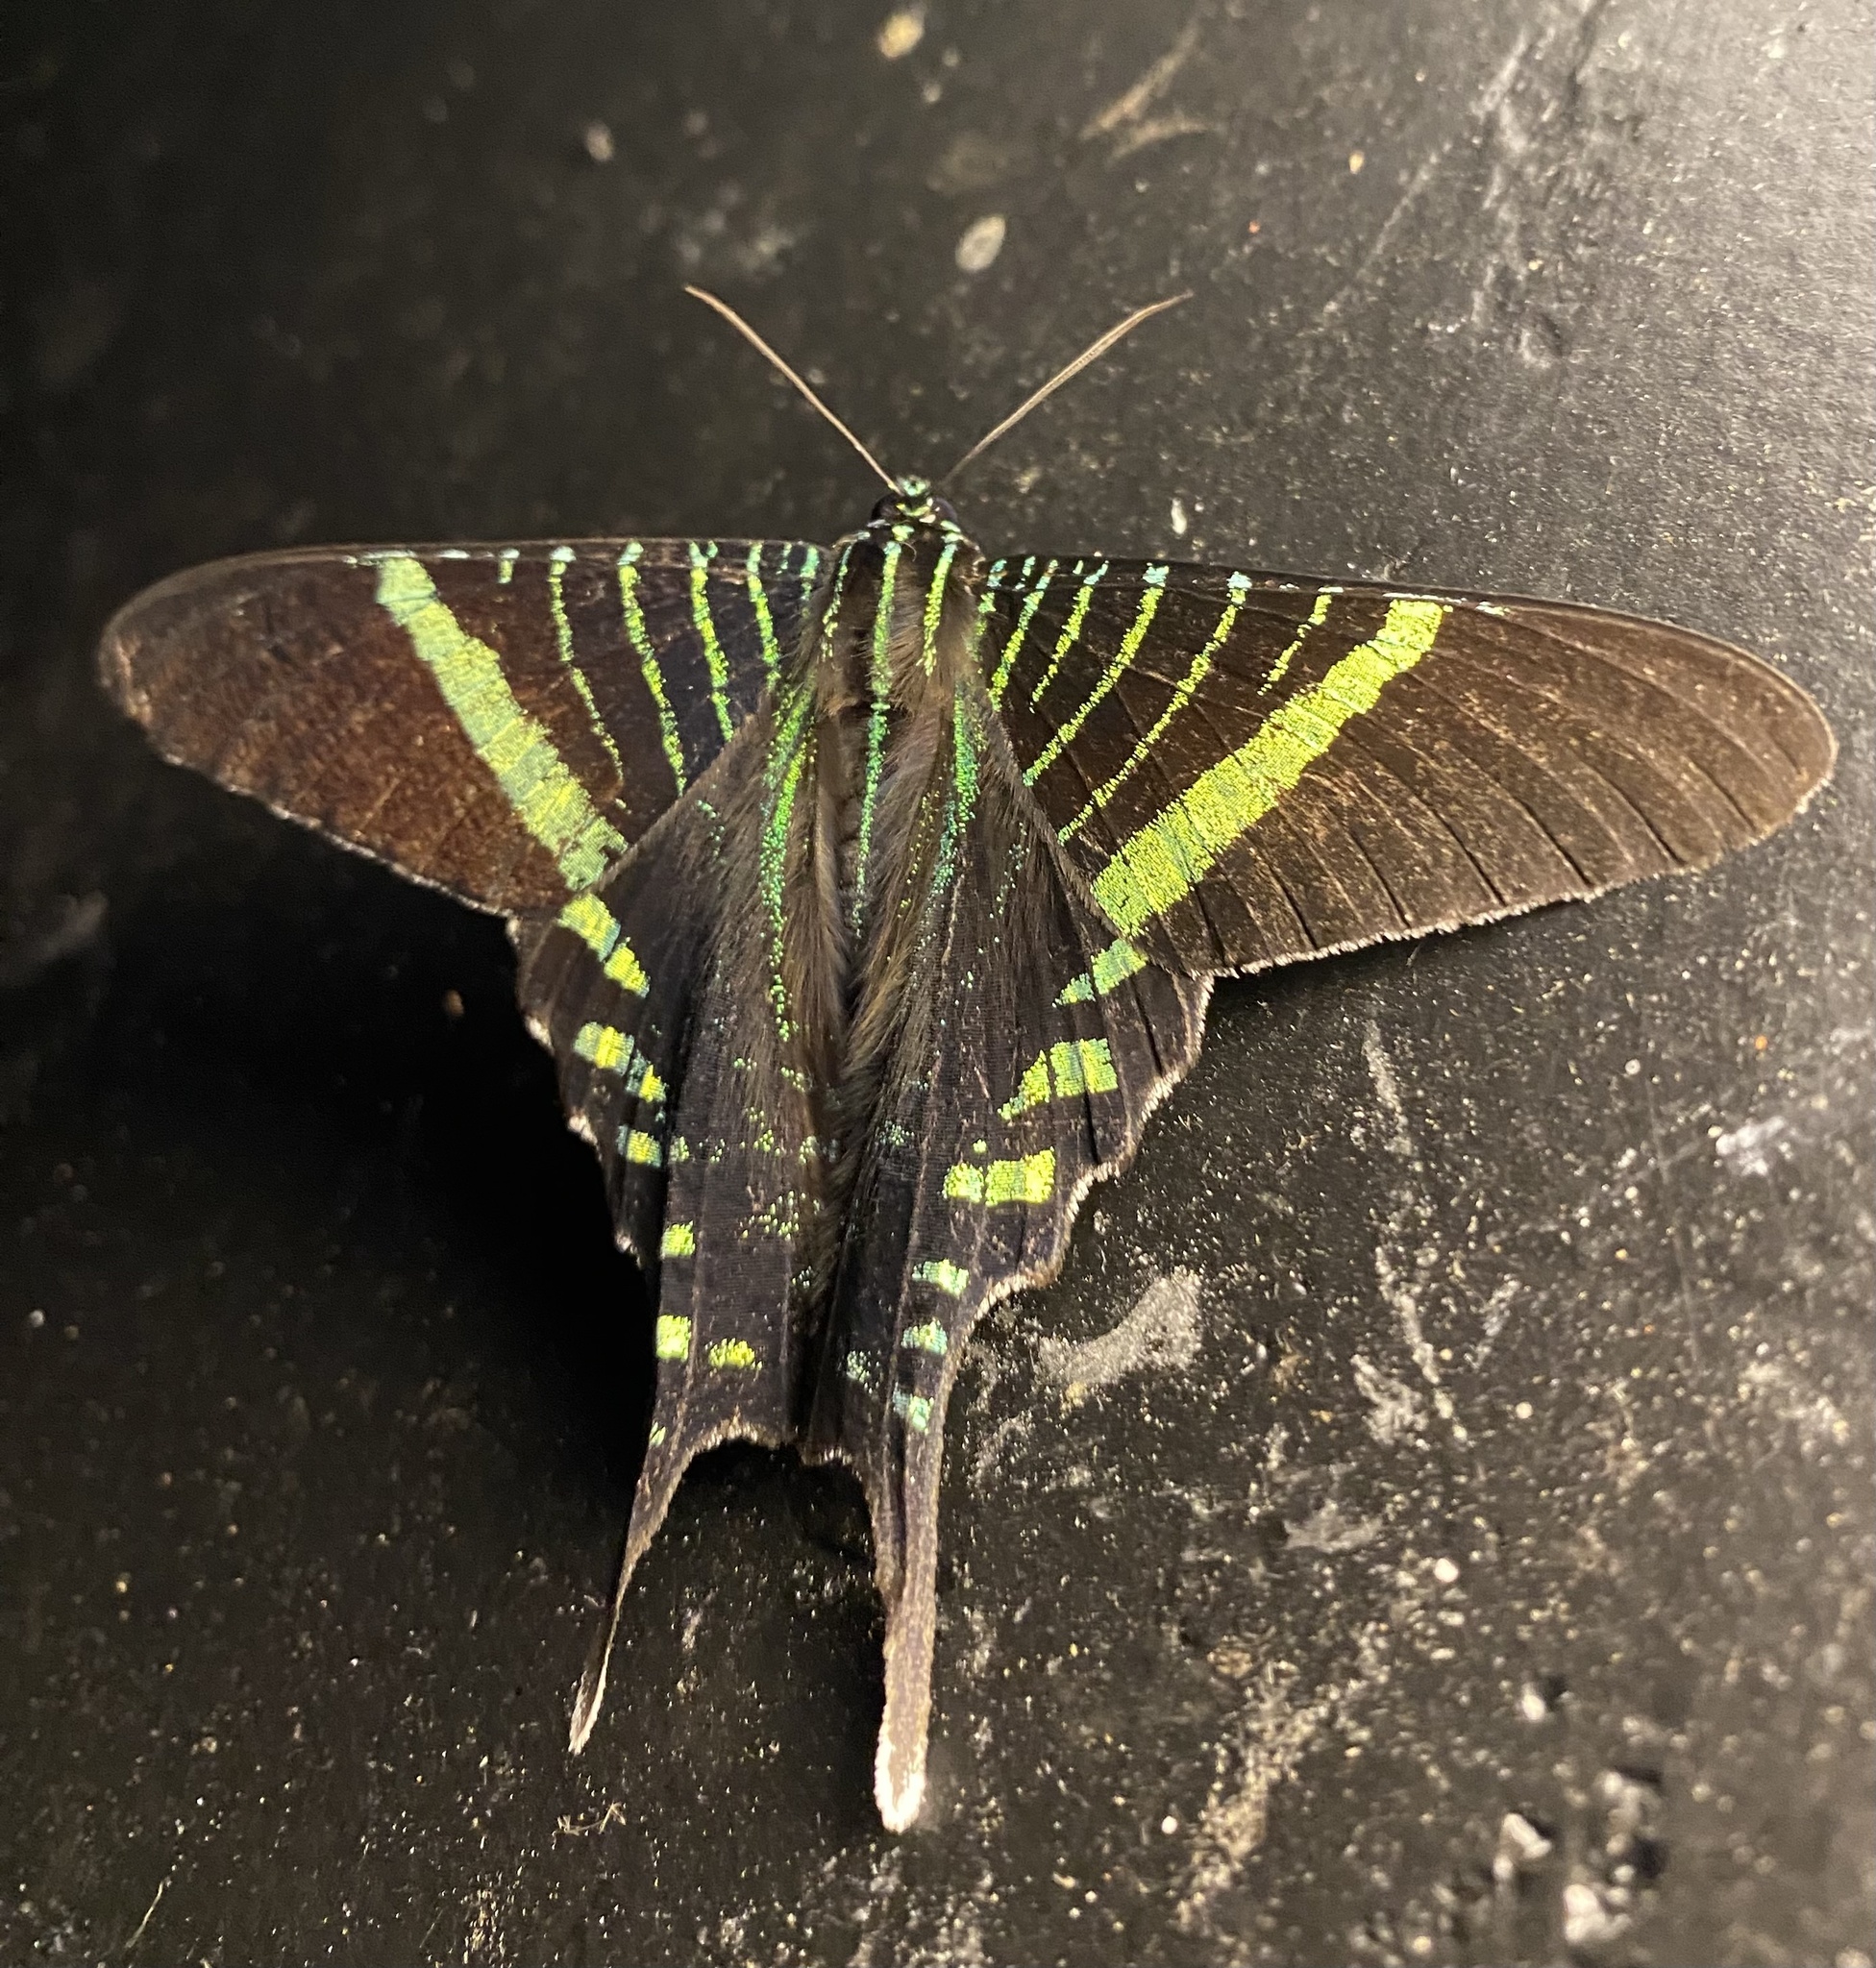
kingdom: Animalia
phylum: Arthropoda
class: Insecta
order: Lepidoptera
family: Uraniidae
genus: Urania
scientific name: Urania fulgens
